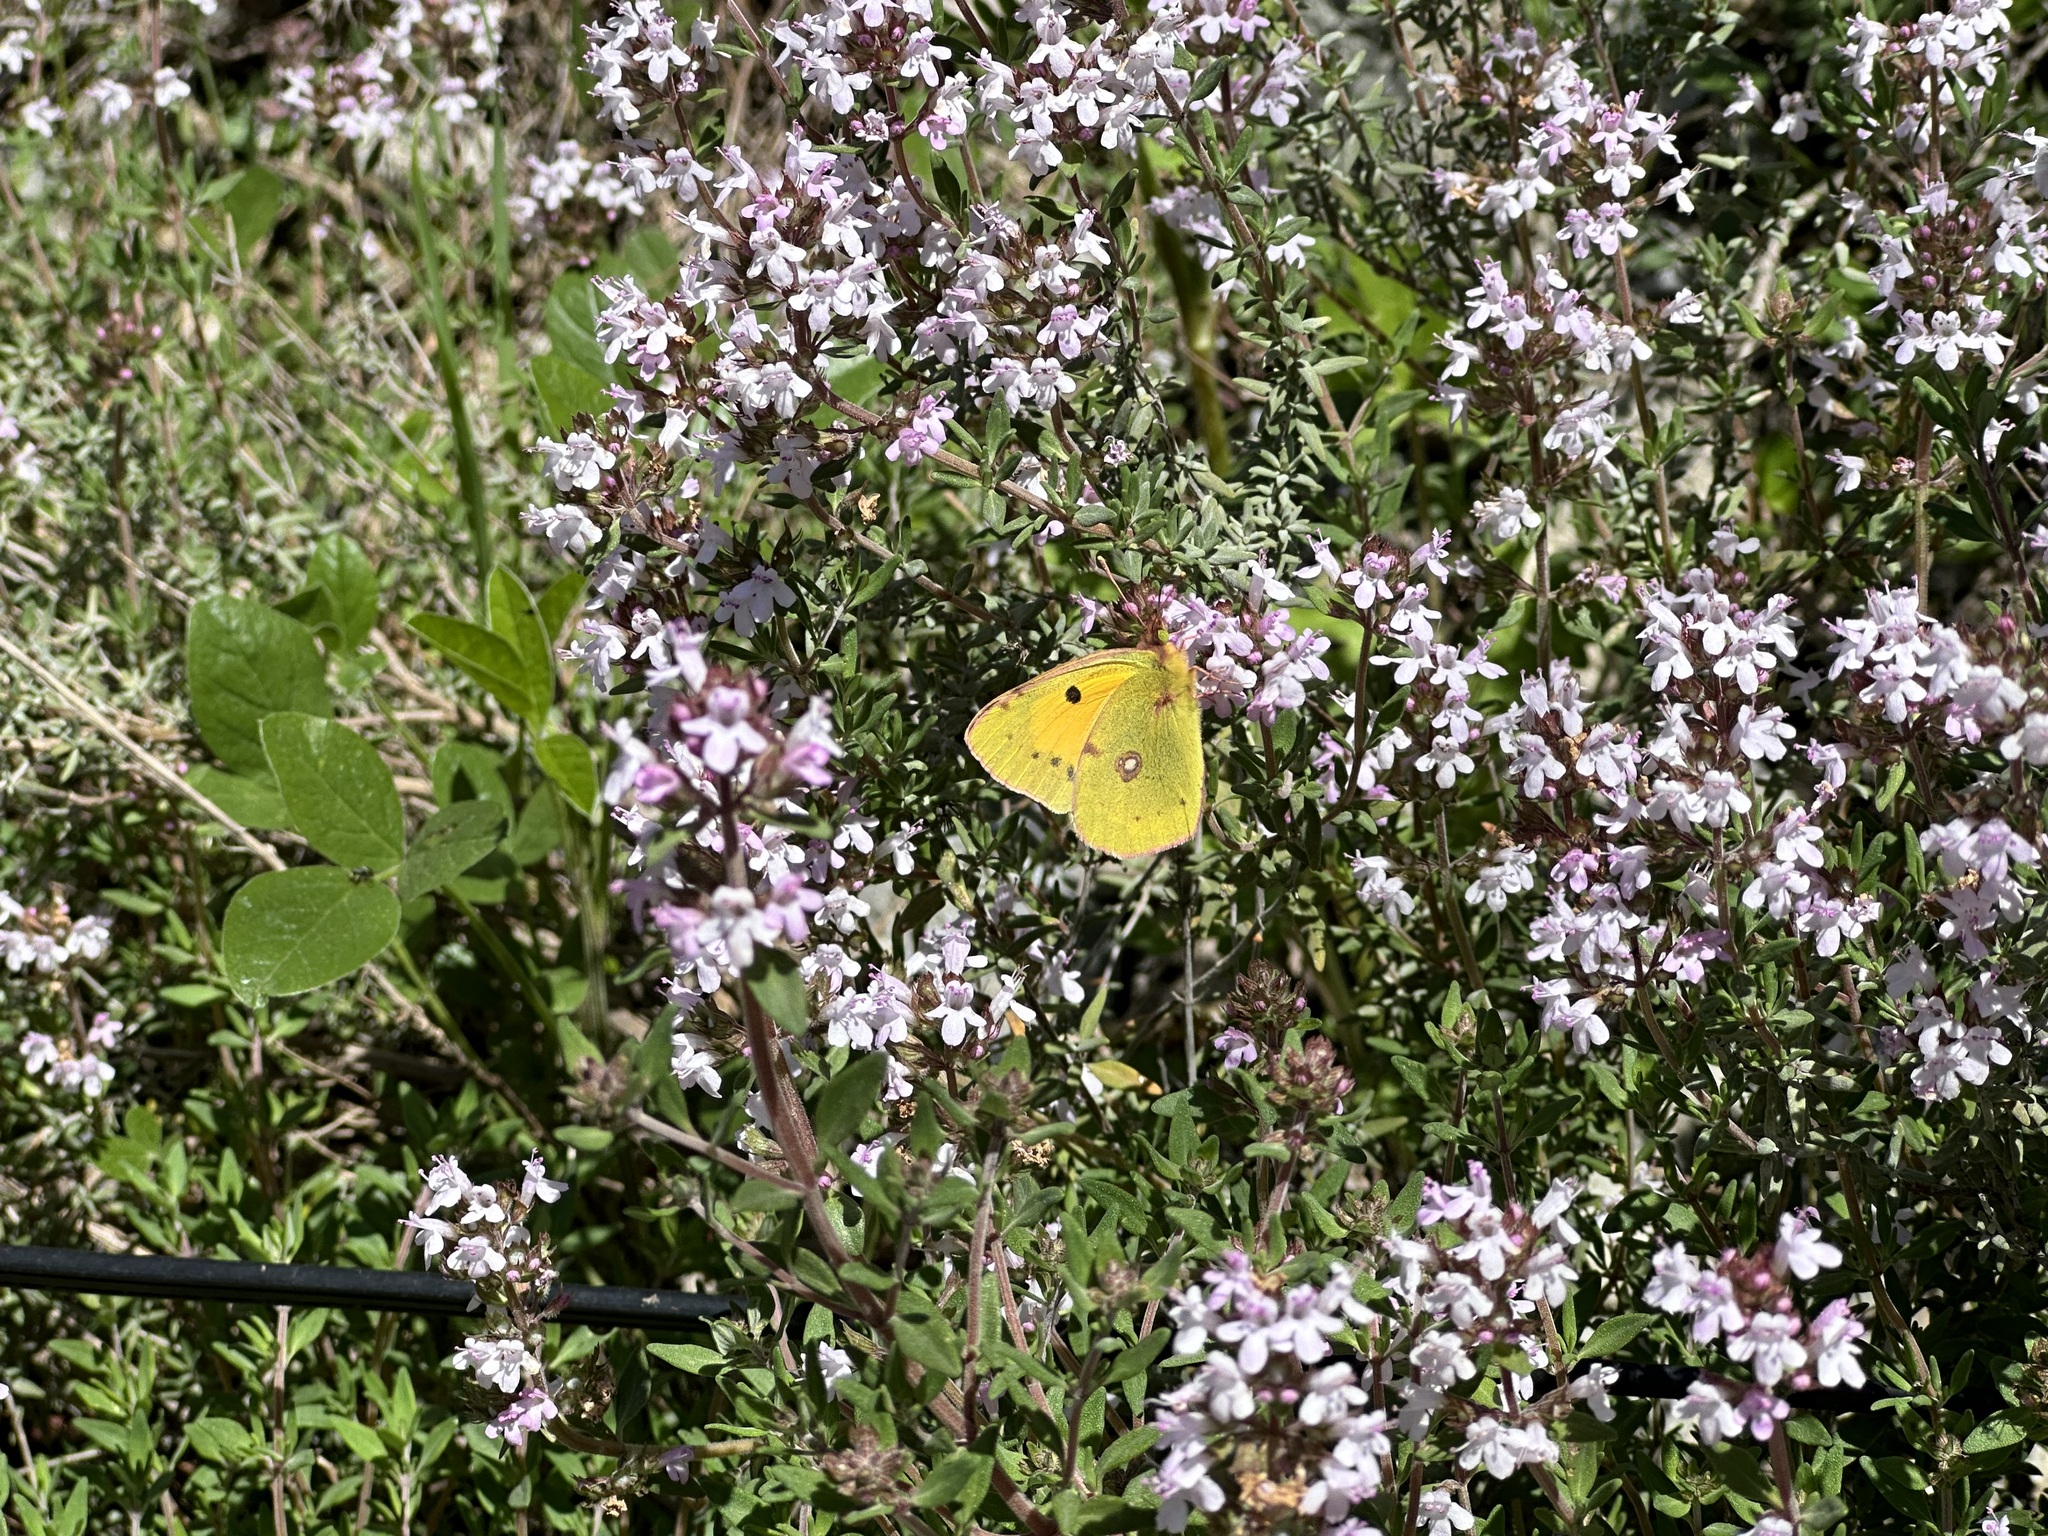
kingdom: Animalia
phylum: Arthropoda
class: Insecta
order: Lepidoptera
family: Pieridae
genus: Colias
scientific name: Colias croceus
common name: Clouded yellow
